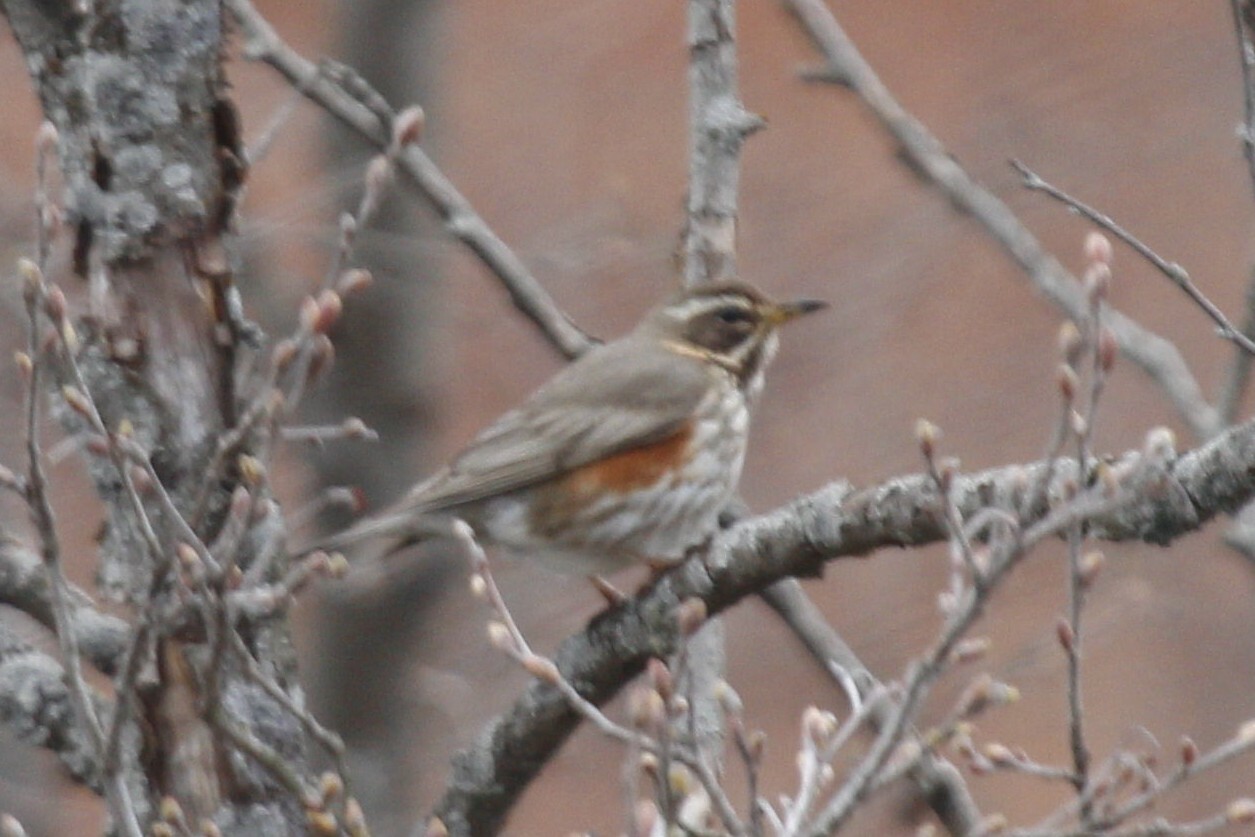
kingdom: Animalia
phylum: Chordata
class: Aves
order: Passeriformes
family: Turdidae
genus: Turdus
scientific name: Turdus iliacus
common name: Redwing
